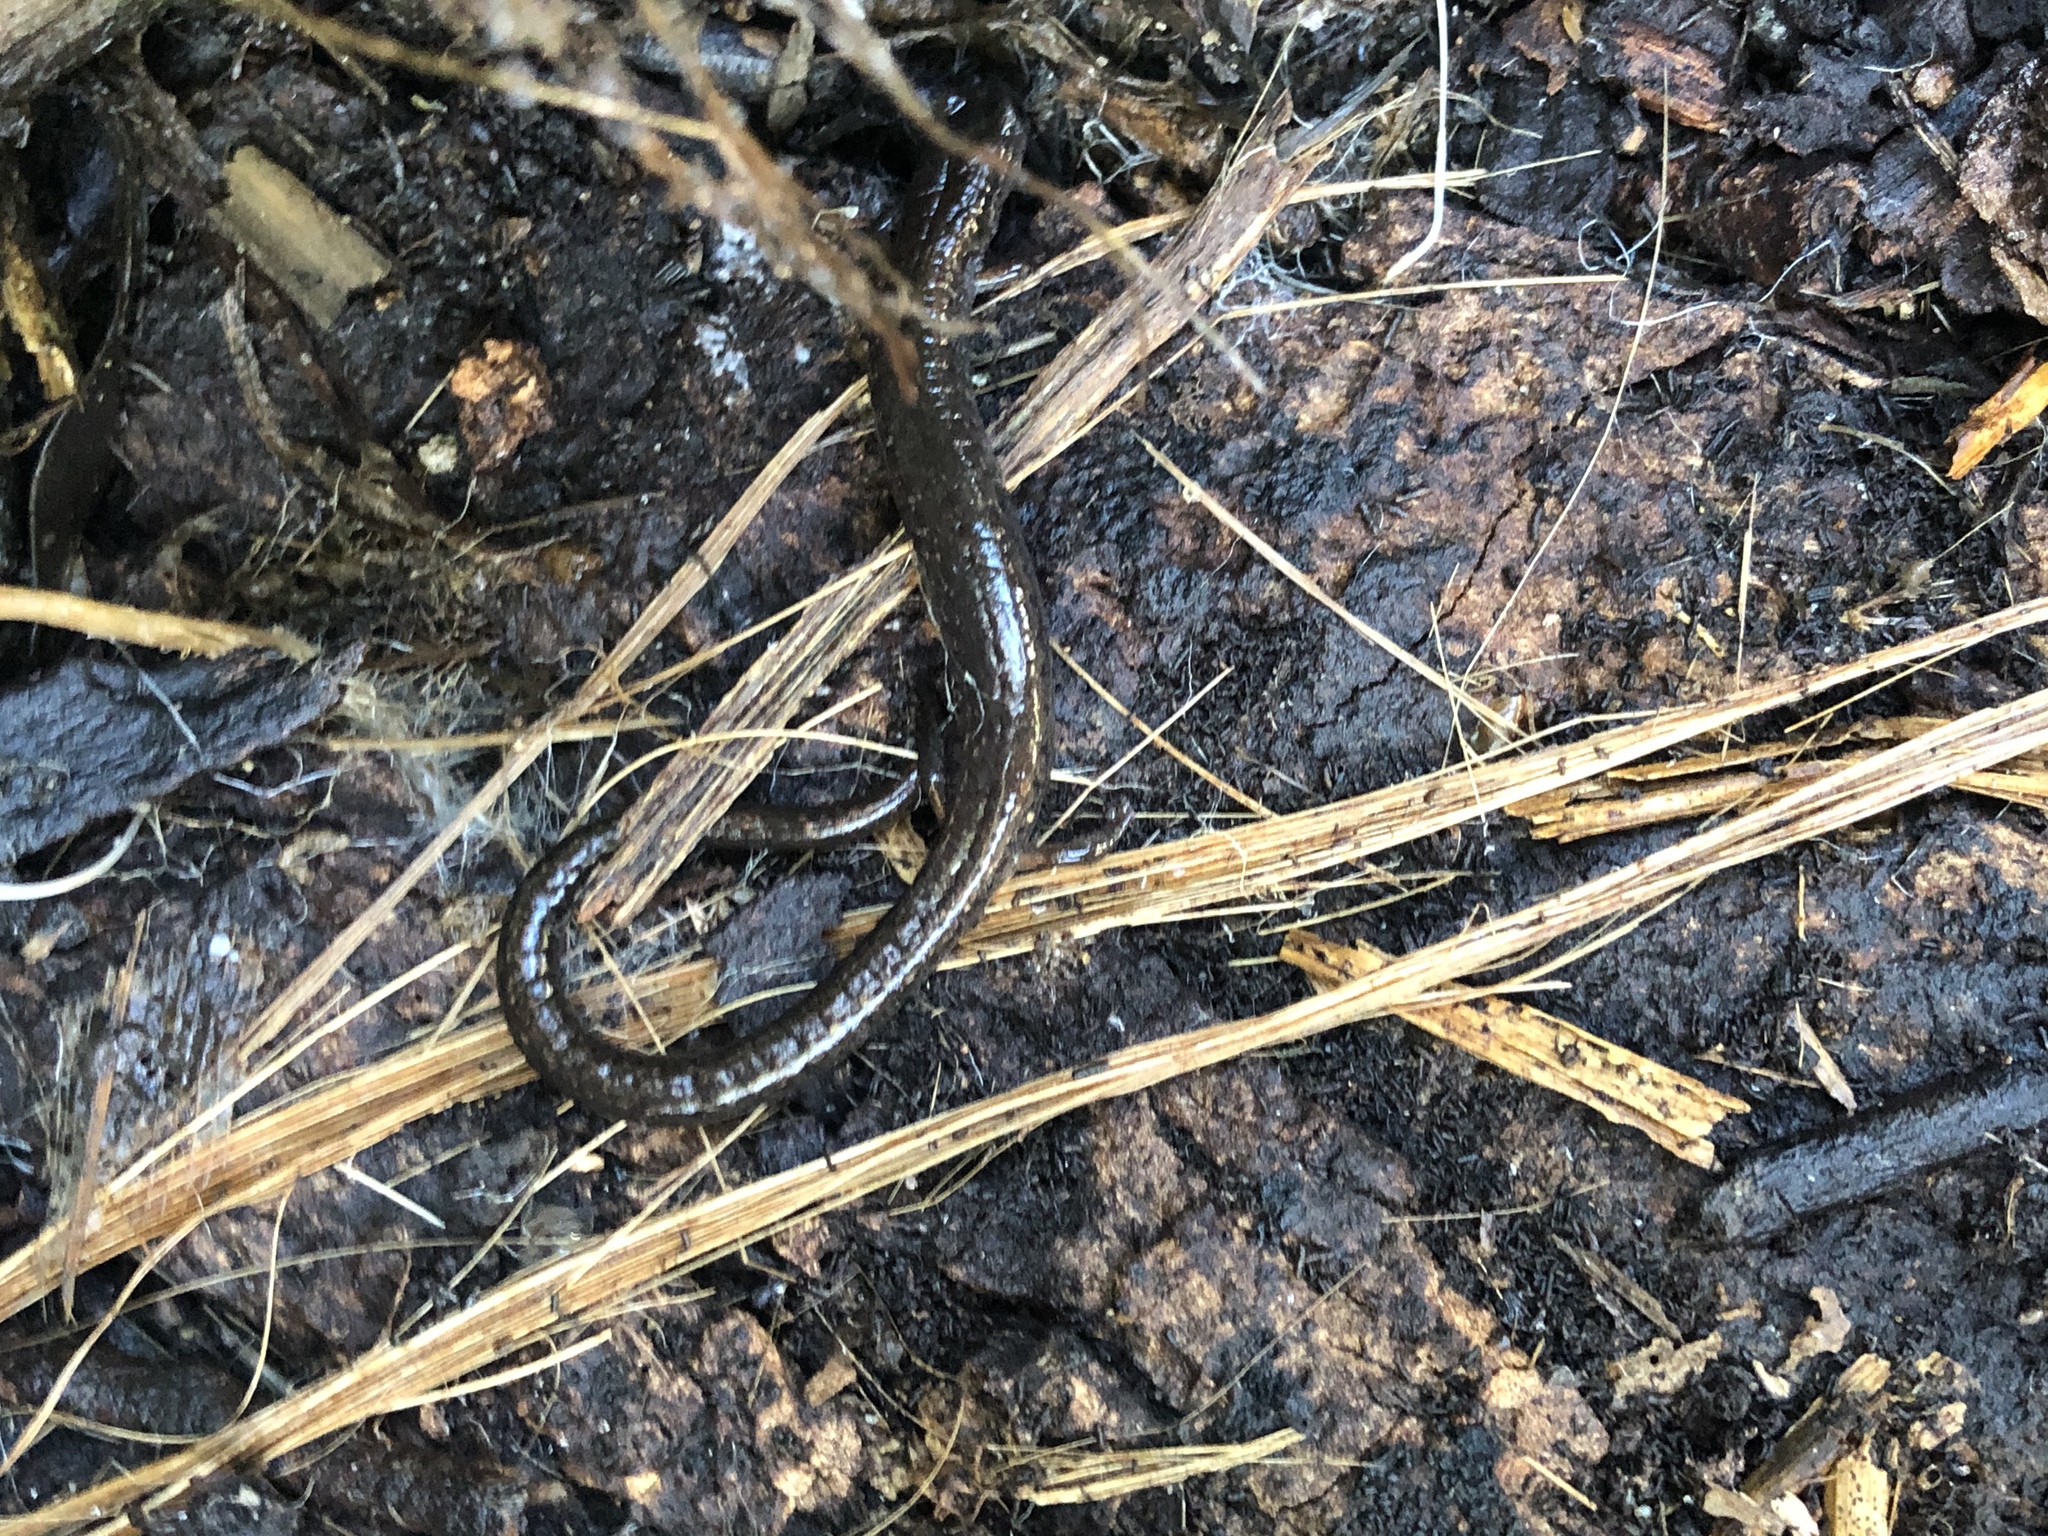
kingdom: Animalia
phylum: Chordata
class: Amphibia
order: Caudata
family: Plethodontidae
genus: Batrachoseps
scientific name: Batrachoseps attenuatus
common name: California slender salamander
